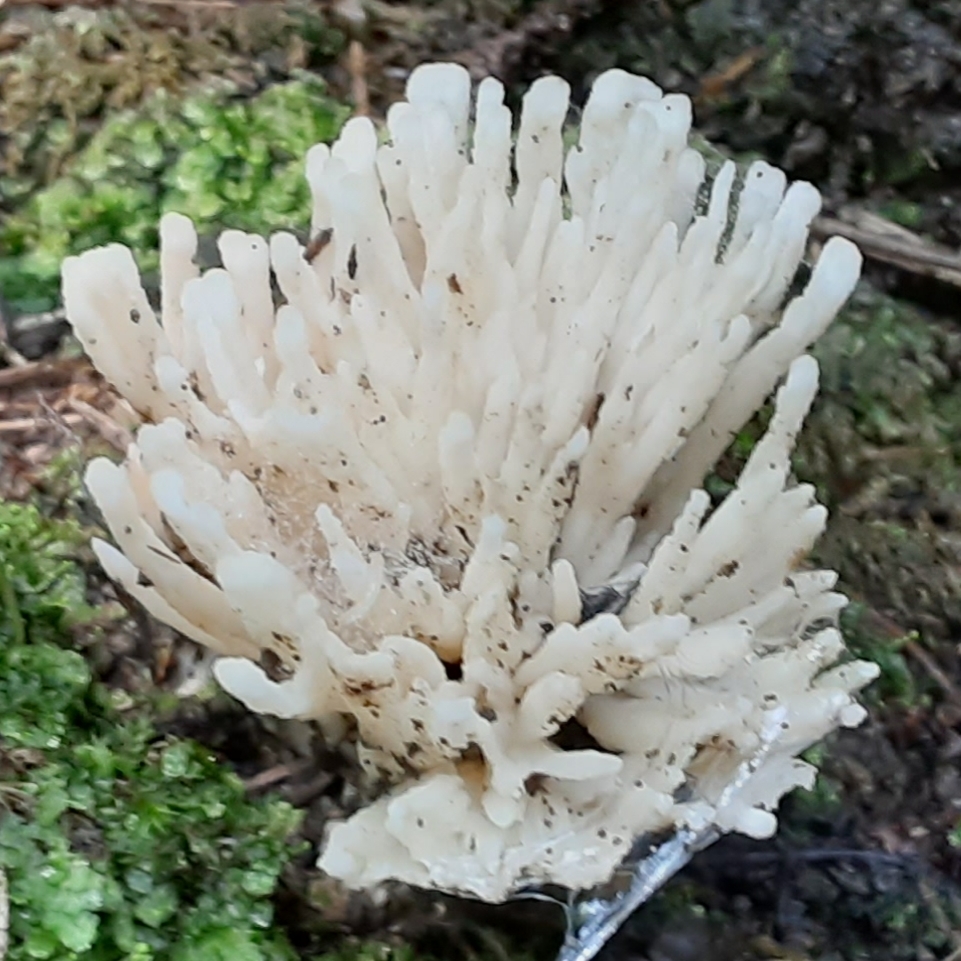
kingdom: Fungi
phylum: Basidiomycota
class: Agaricomycetes
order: Sebacinales
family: Sebacinaceae
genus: Sebacina
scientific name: Sebacina schweinitzii
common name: Jellied false coral fungus
